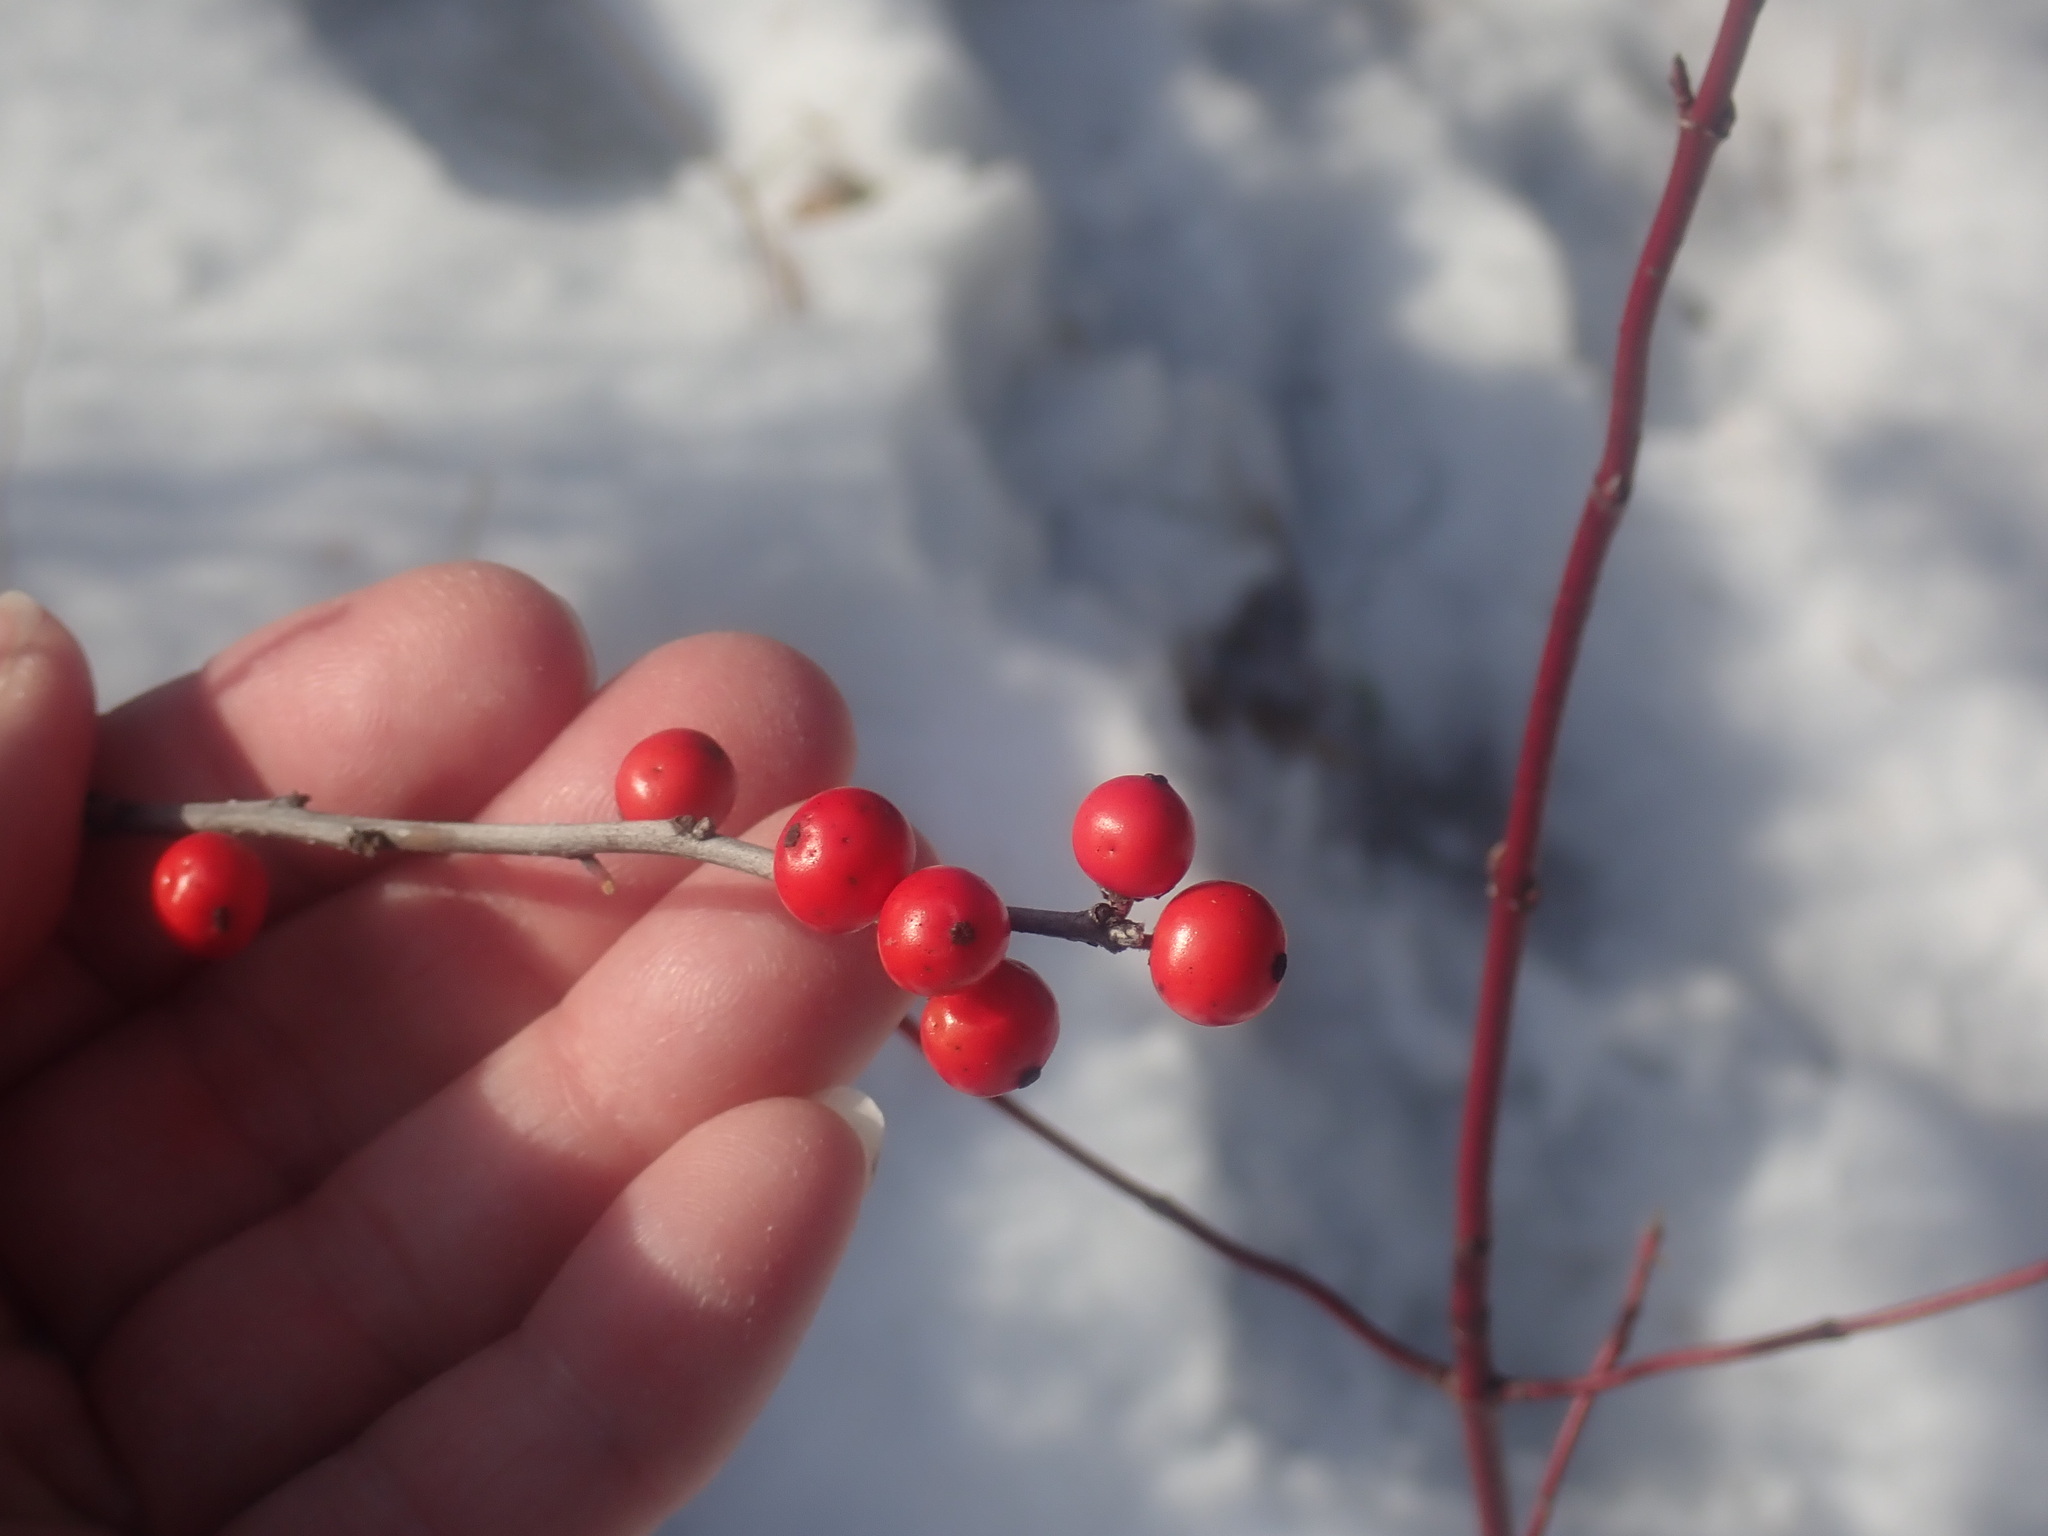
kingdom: Plantae
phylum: Tracheophyta
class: Magnoliopsida
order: Aquifoliales
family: Aquifoliaceae
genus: Ilex
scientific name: Ilex verticillata
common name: Virginia winterberry
